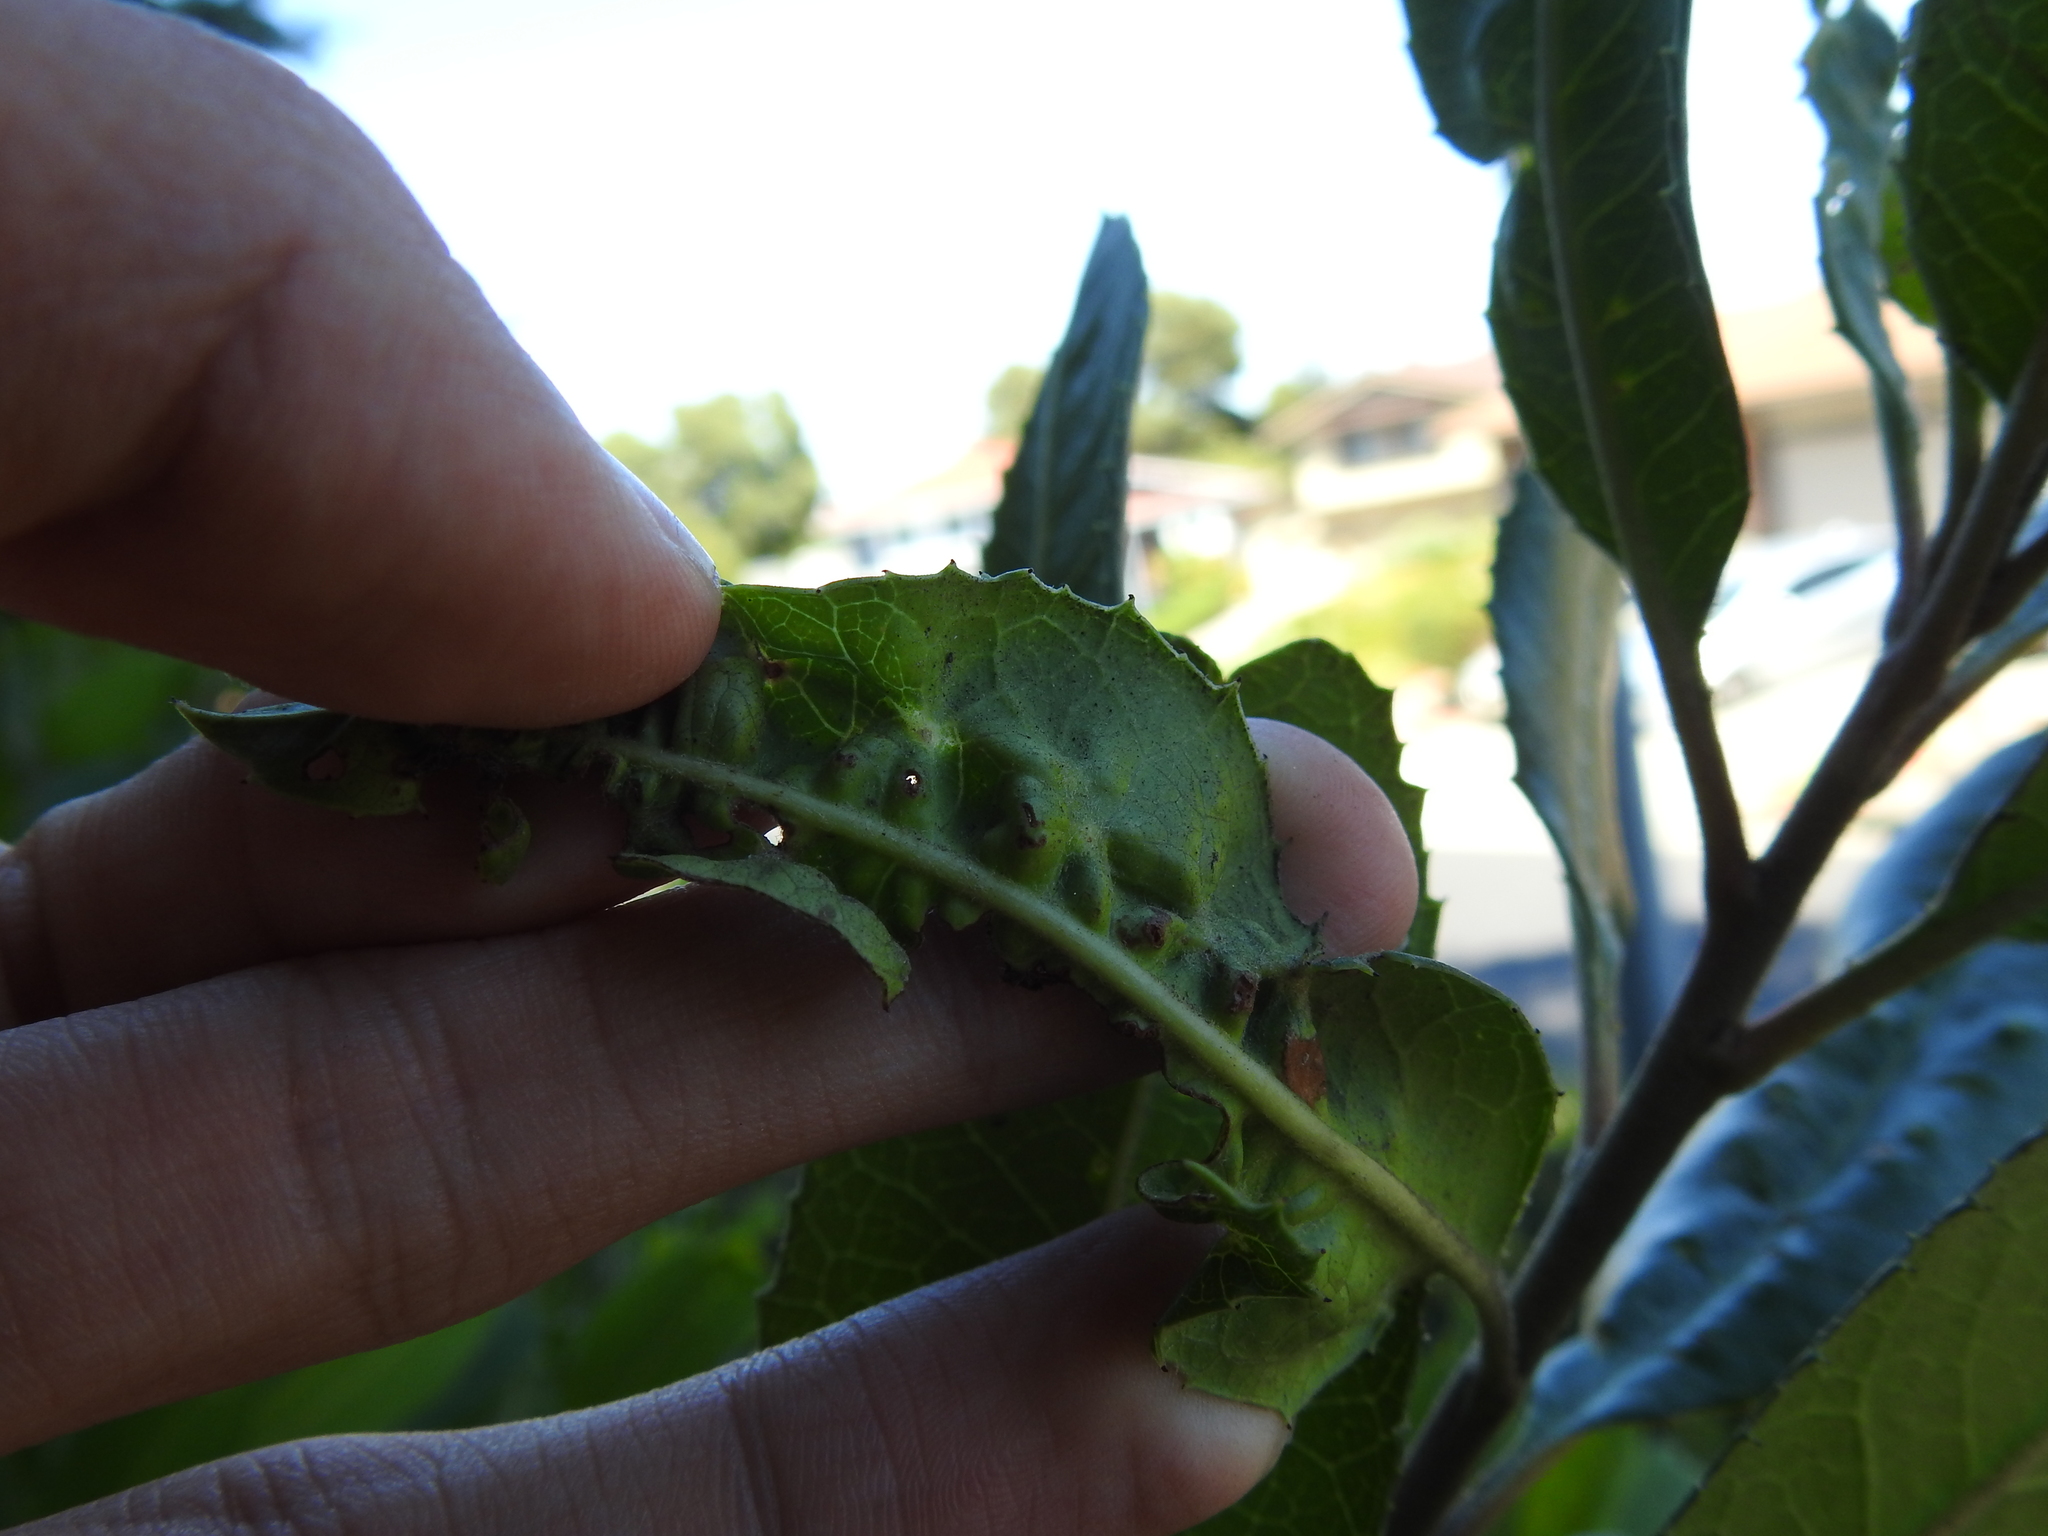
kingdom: Animalia
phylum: Arthropoda
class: Insecta
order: Thysanoptera
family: Phlaeothripidae
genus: Liothrips
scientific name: Liothrips ilex
